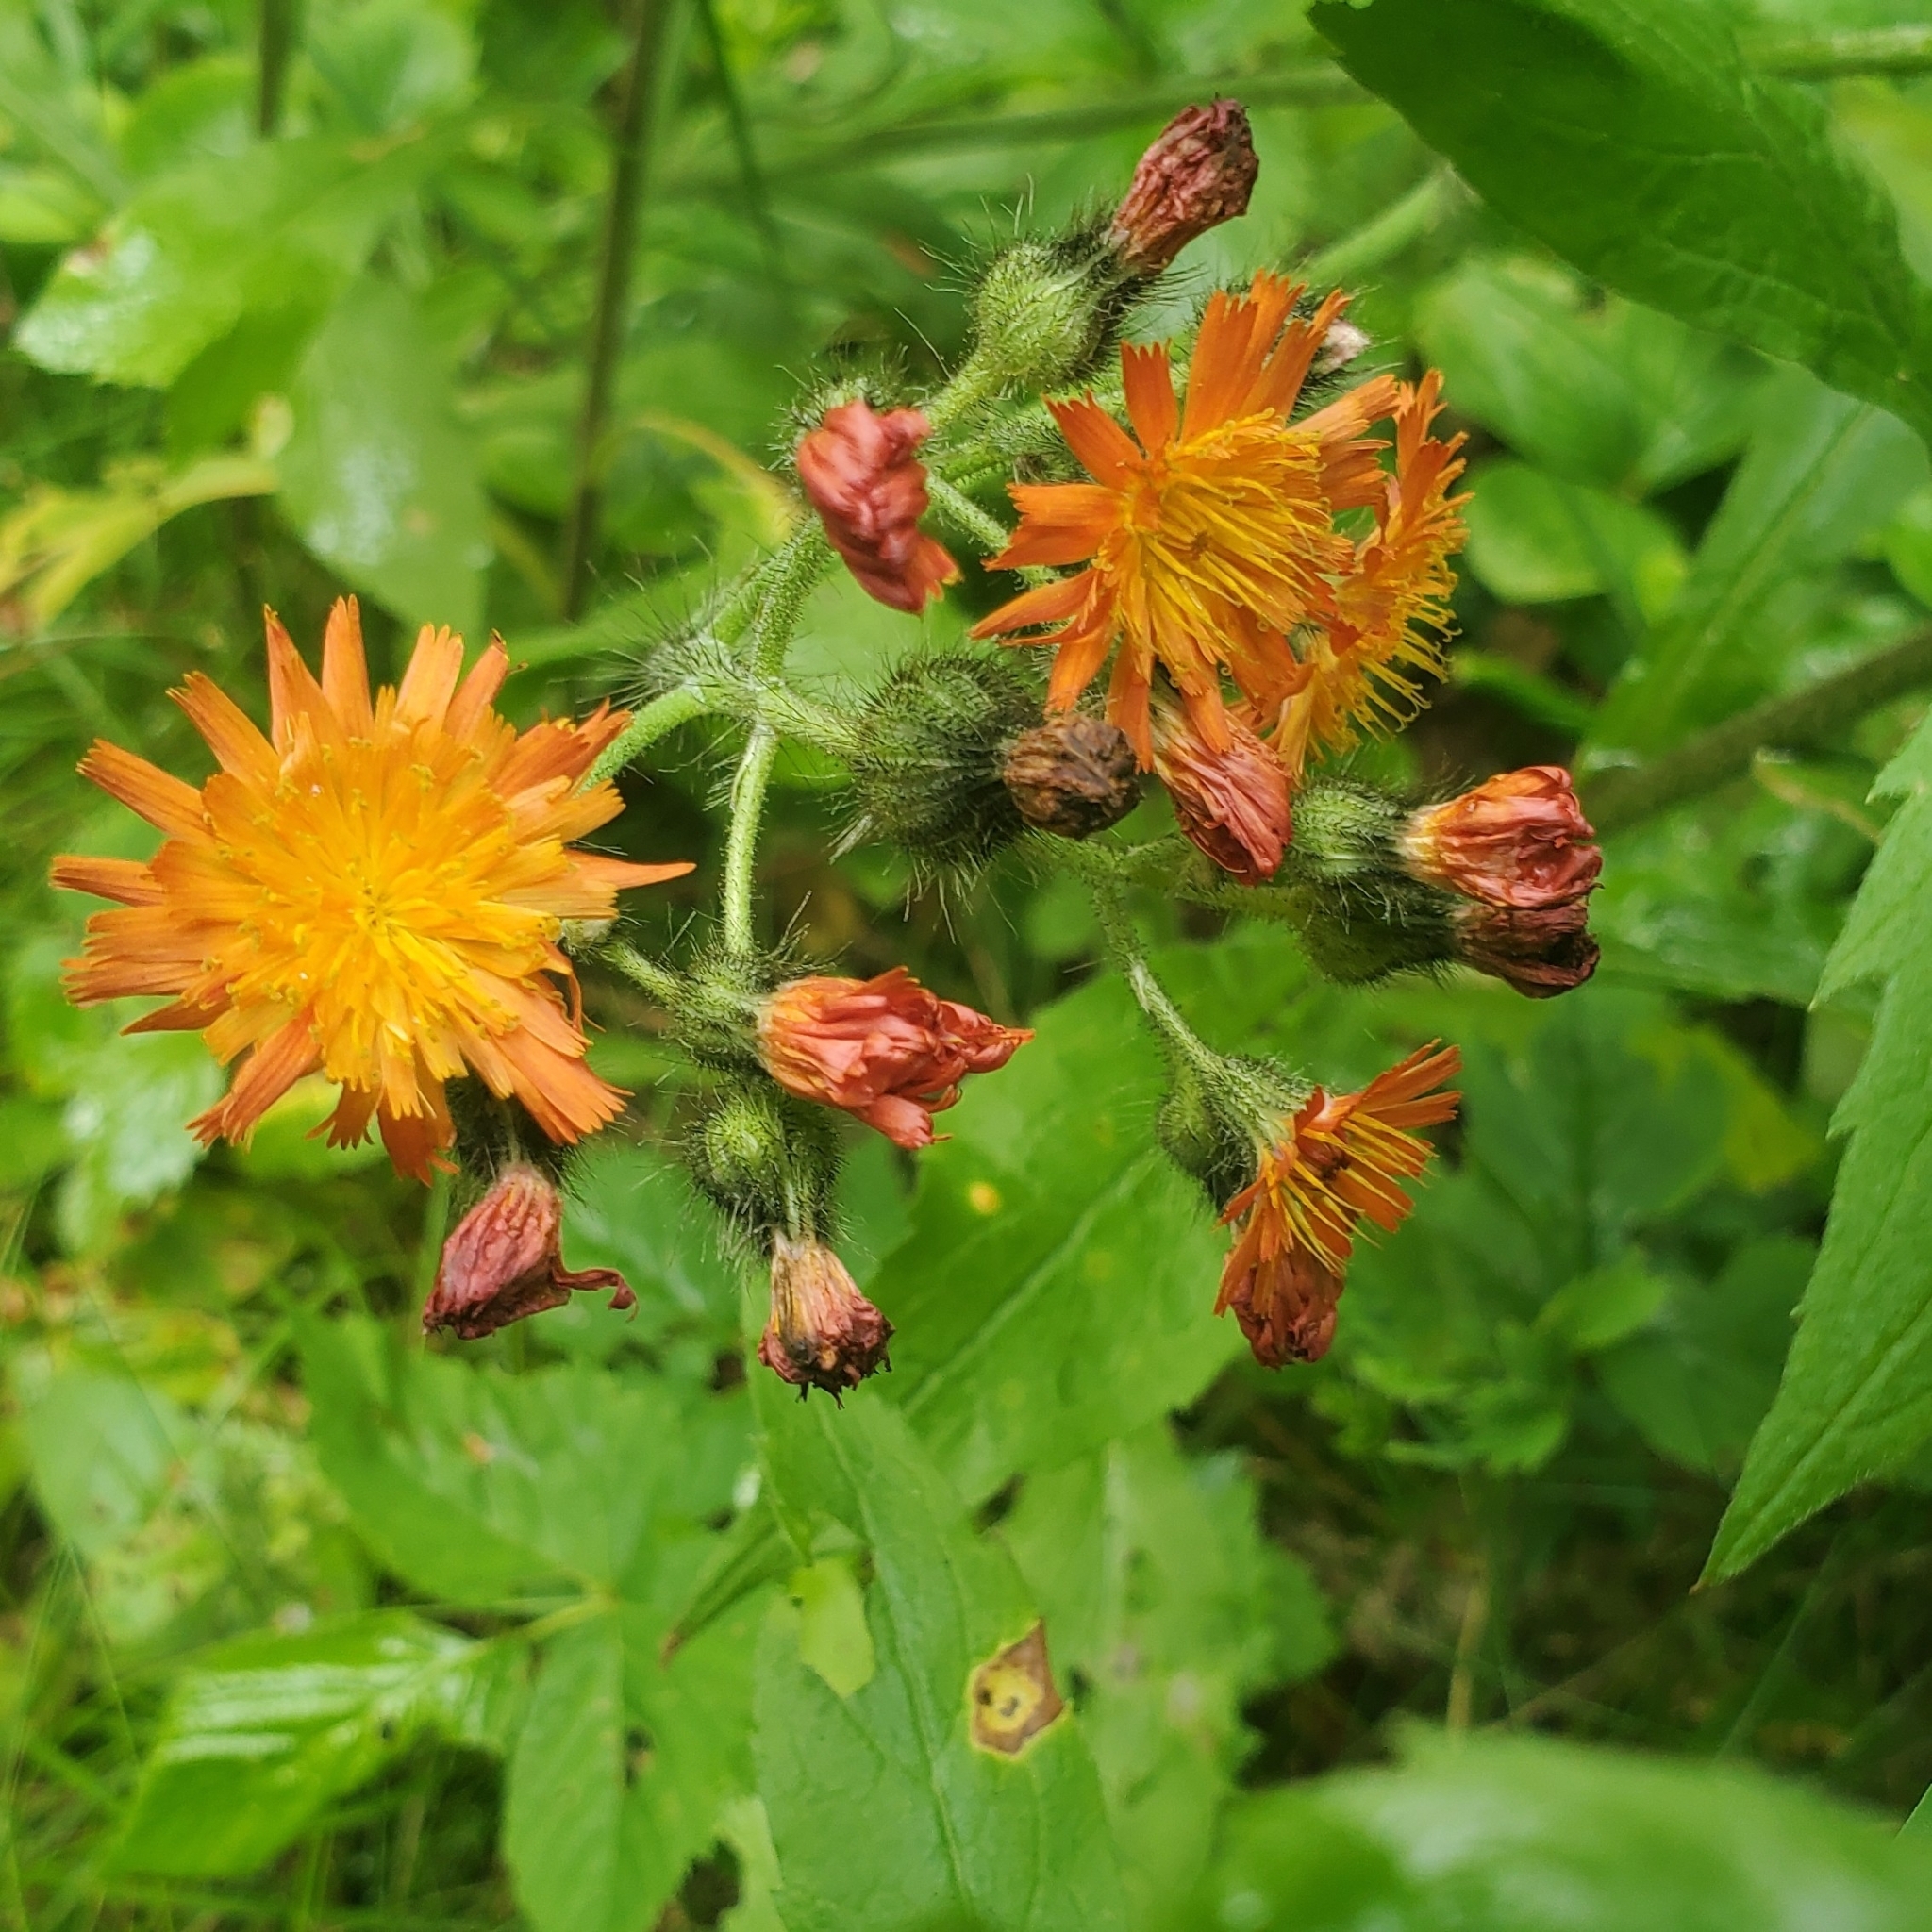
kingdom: Plantae
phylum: Tracheophyta
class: Magnoliopsida
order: Asterales
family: Asteraceae
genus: Pilosella
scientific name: Pilosella aurantiaca
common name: Fox-and-cubs
